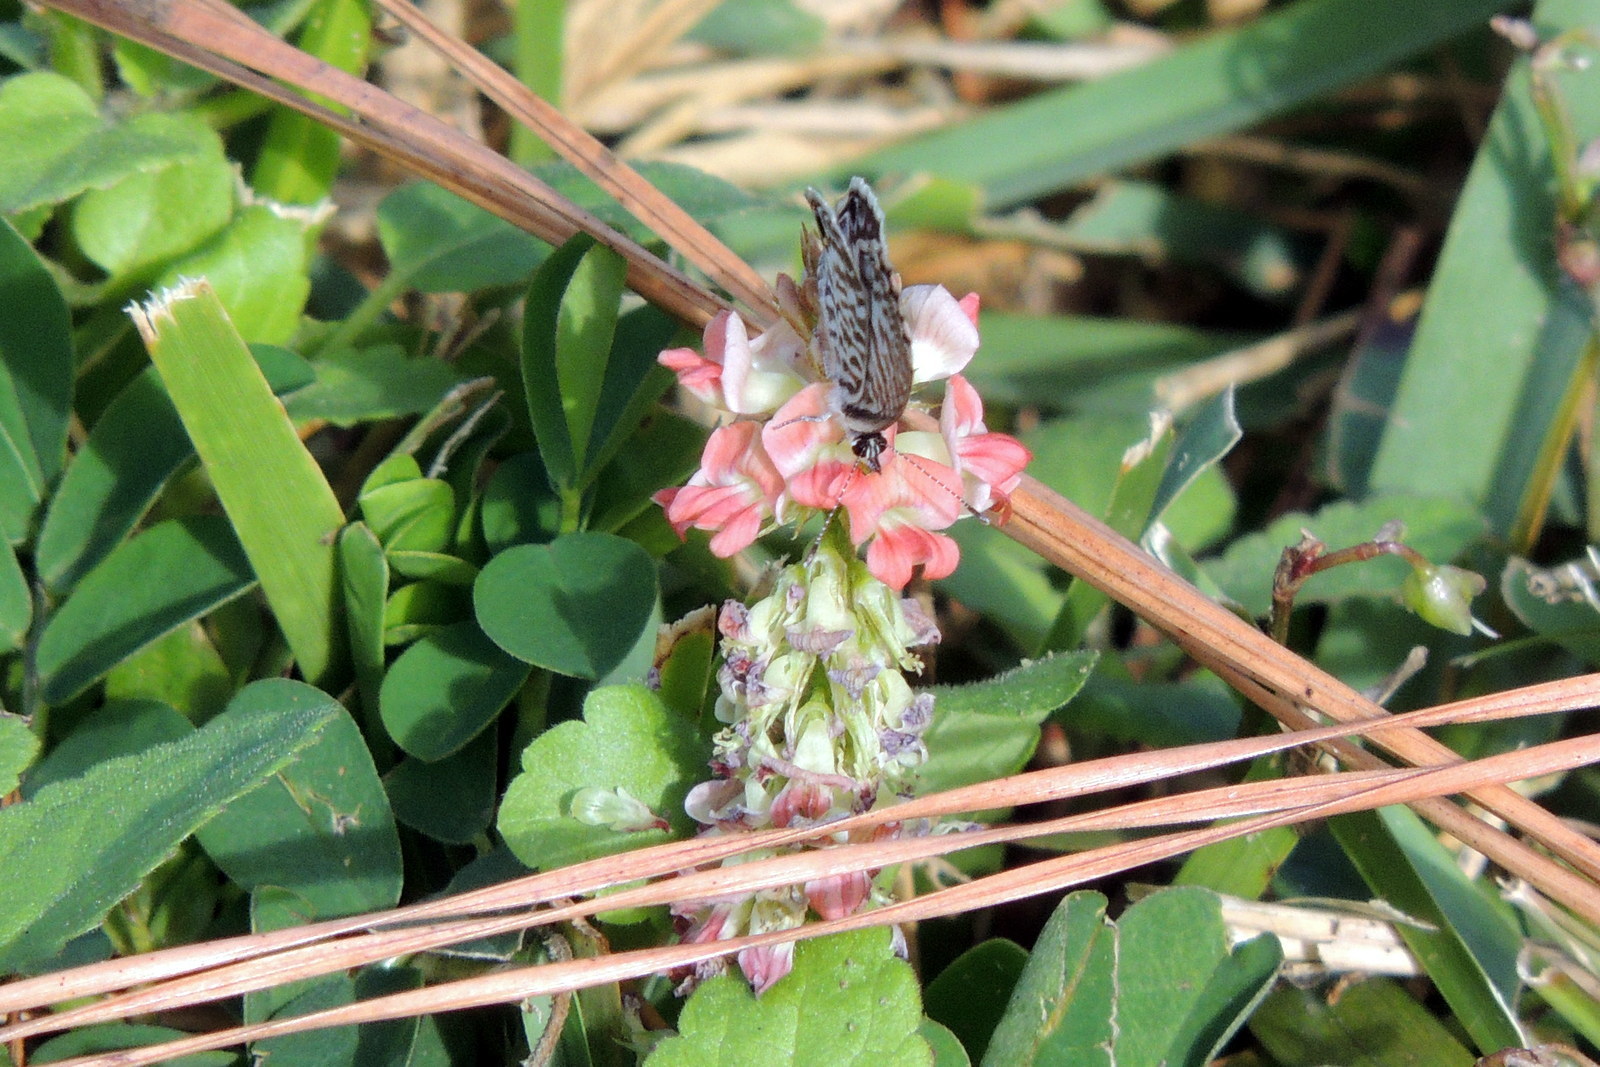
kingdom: Animalia
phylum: Arthropoda
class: Insecta
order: Lepidoptera
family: Lycaenidae
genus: Leptotes
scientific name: Leptotes cassius
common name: Cassius blue
